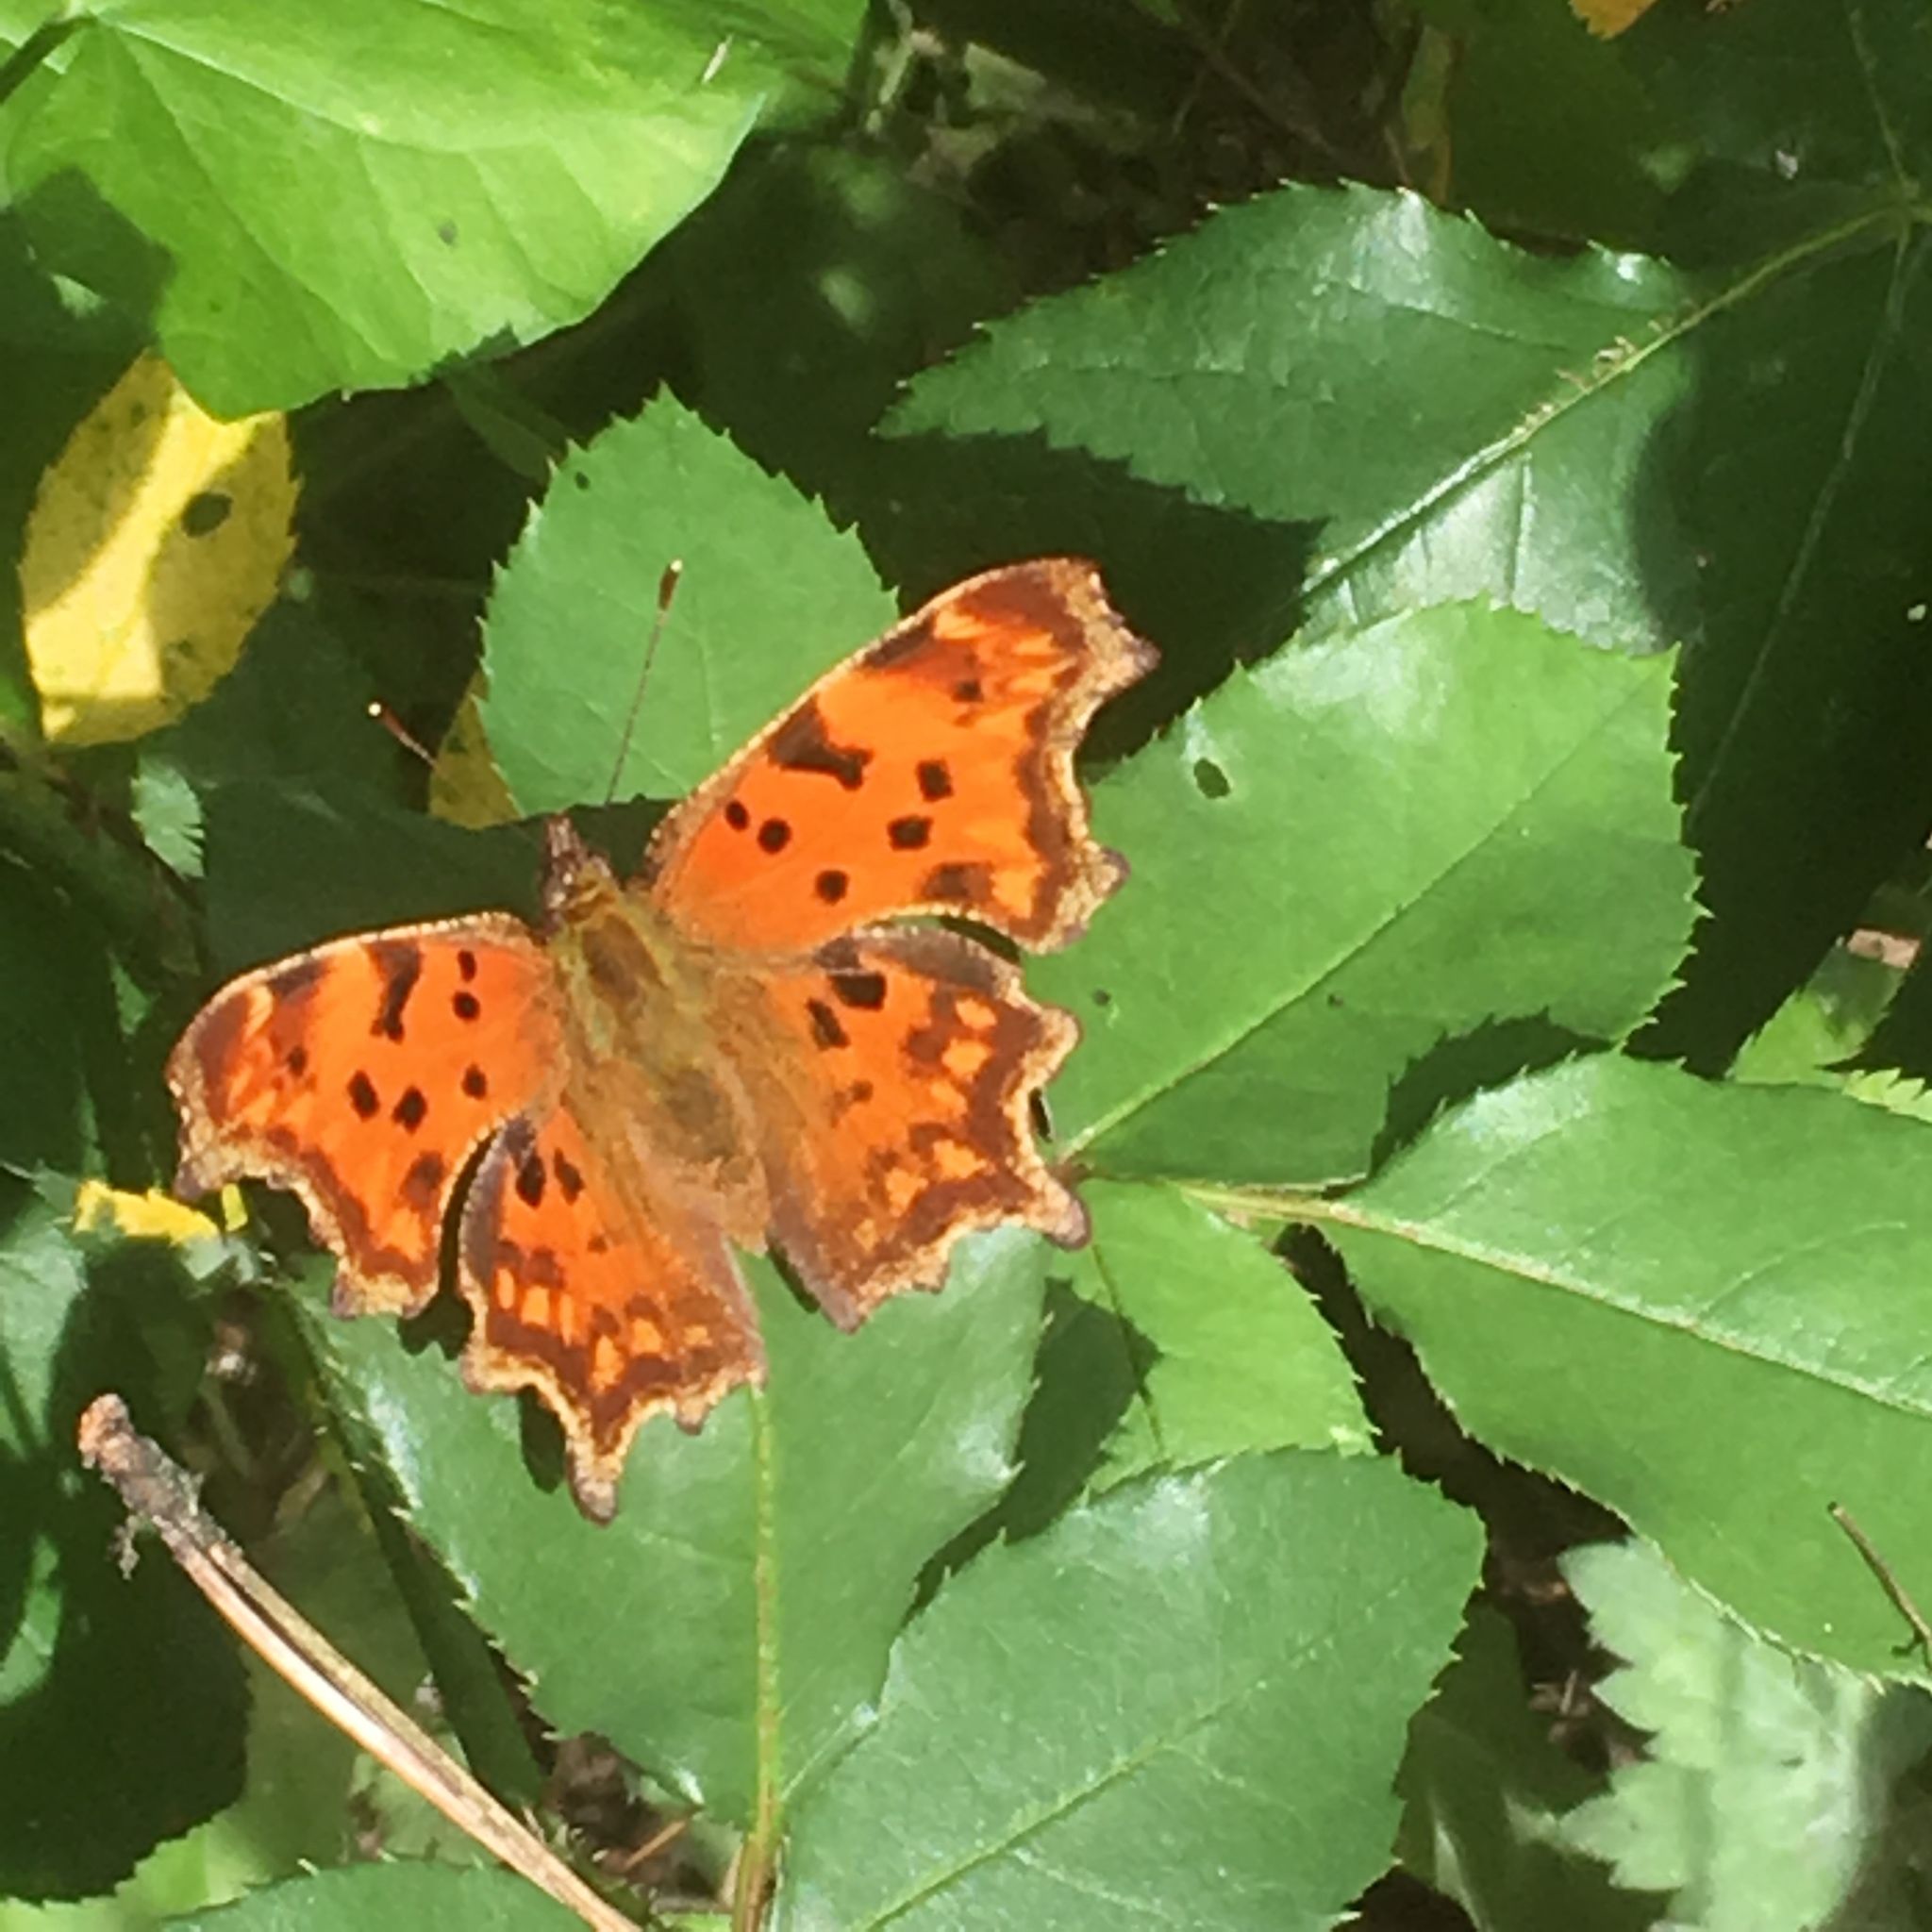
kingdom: Animalia
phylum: Arthropoda
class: Insecta
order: Lepidoptera
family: Nymphalidae
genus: Polygonia
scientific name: Polygonia c-album
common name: Comma
